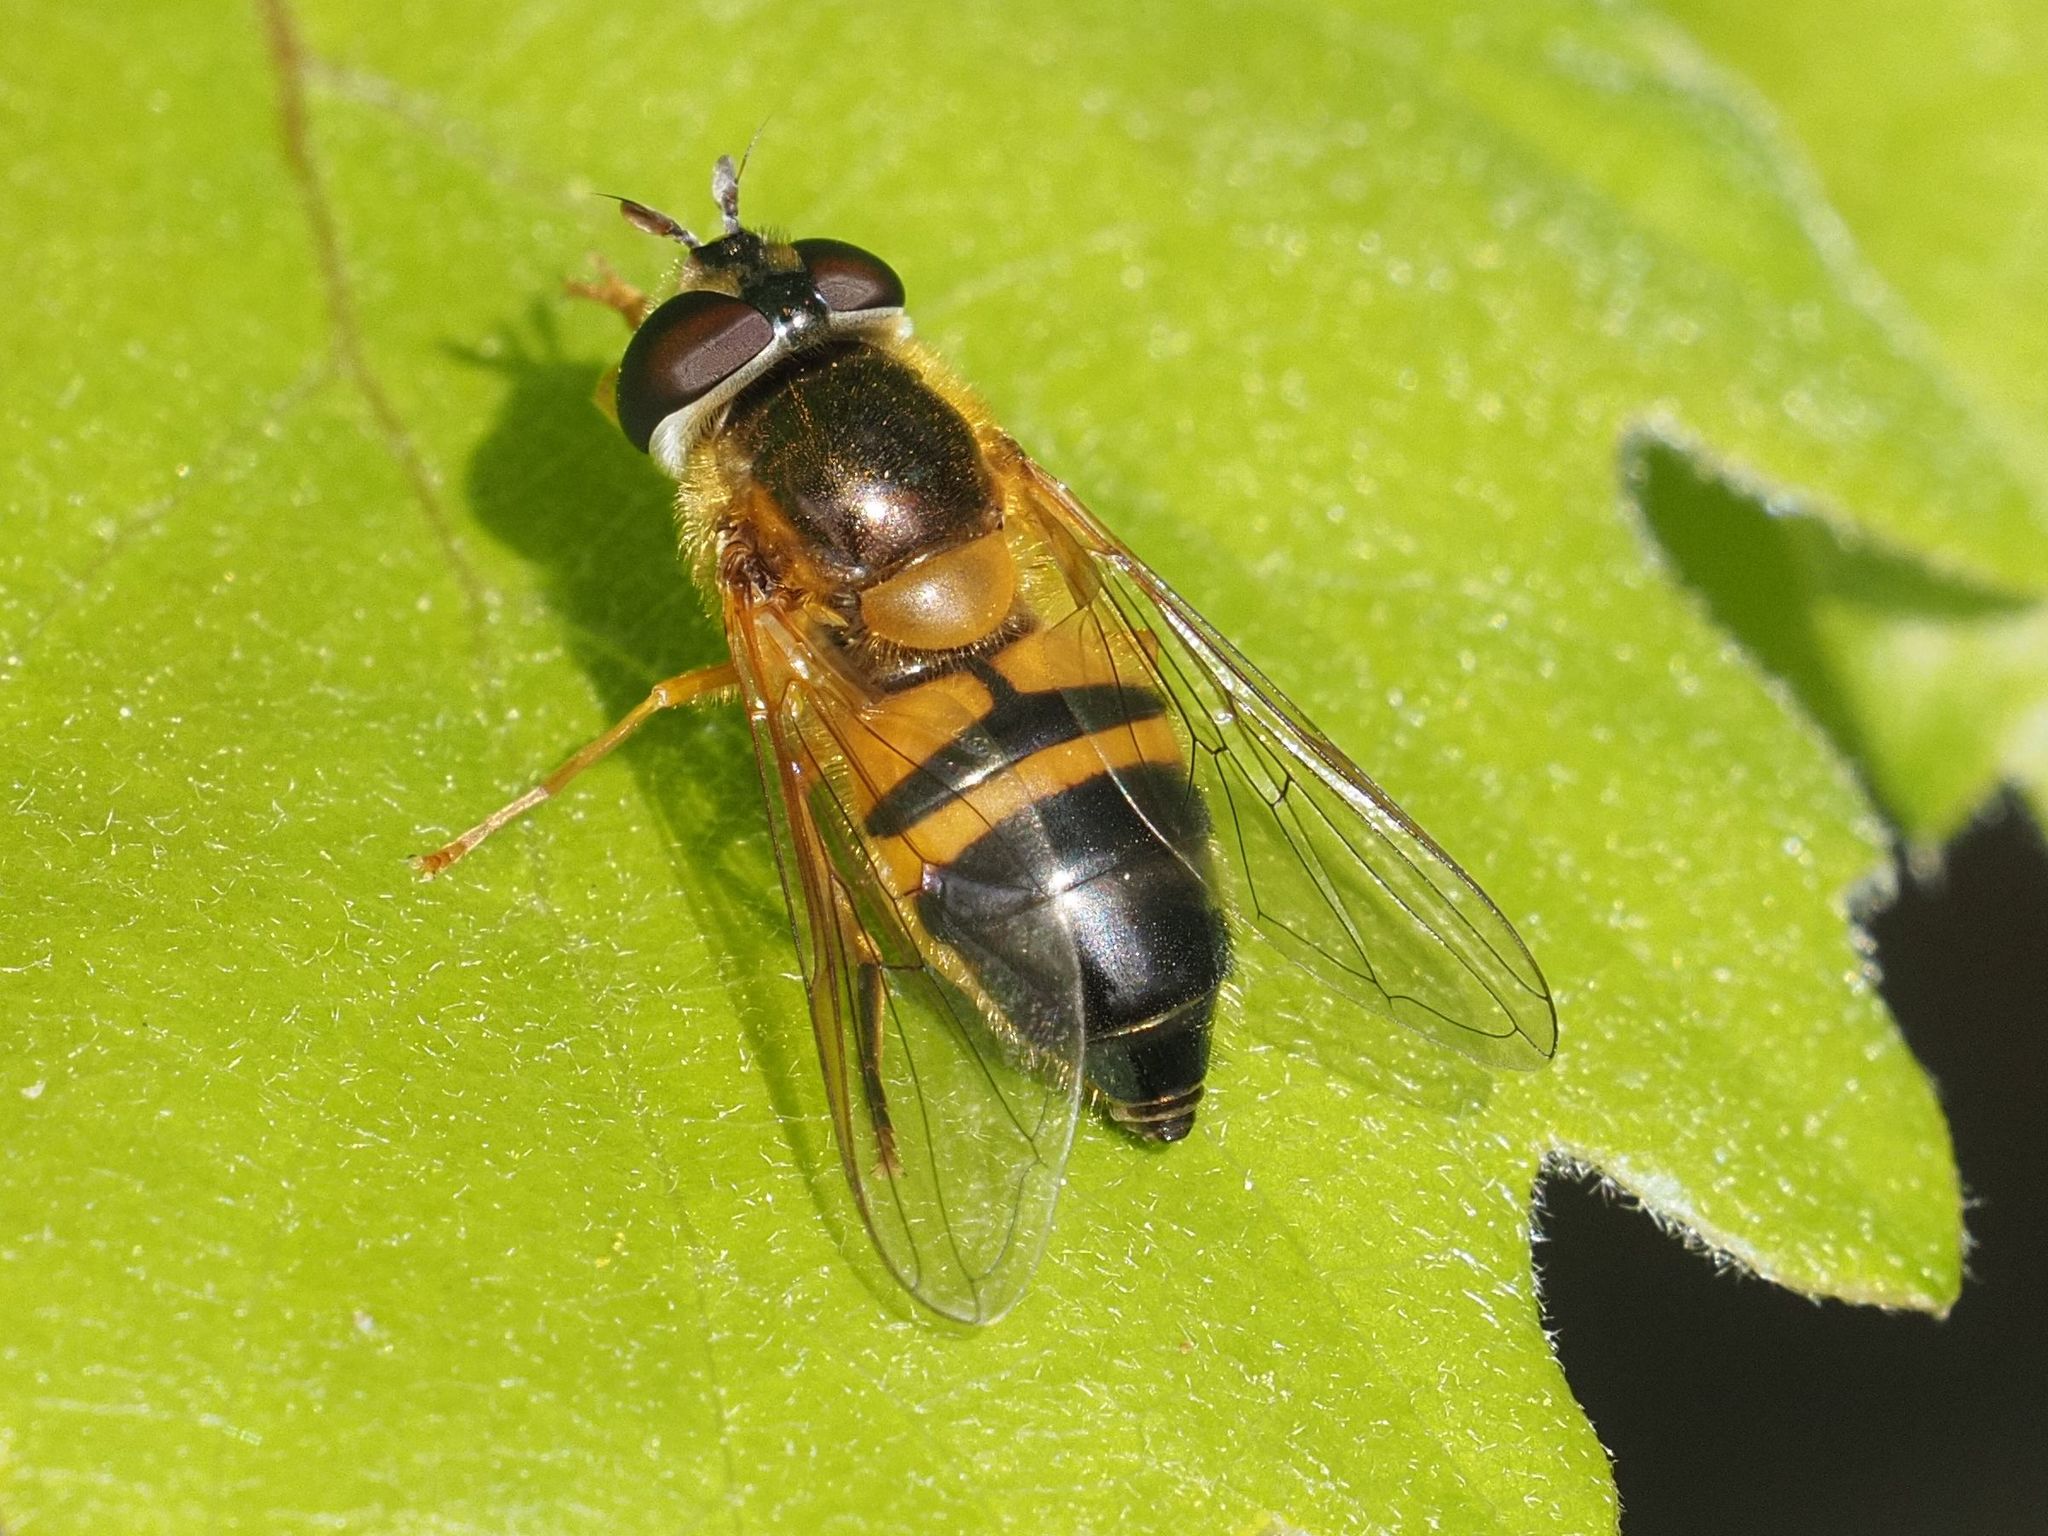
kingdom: Animalia
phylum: Arthropoda
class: Insecta
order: Diptera
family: Syrphidae
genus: Epistrophe
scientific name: Epistrophe eligans
